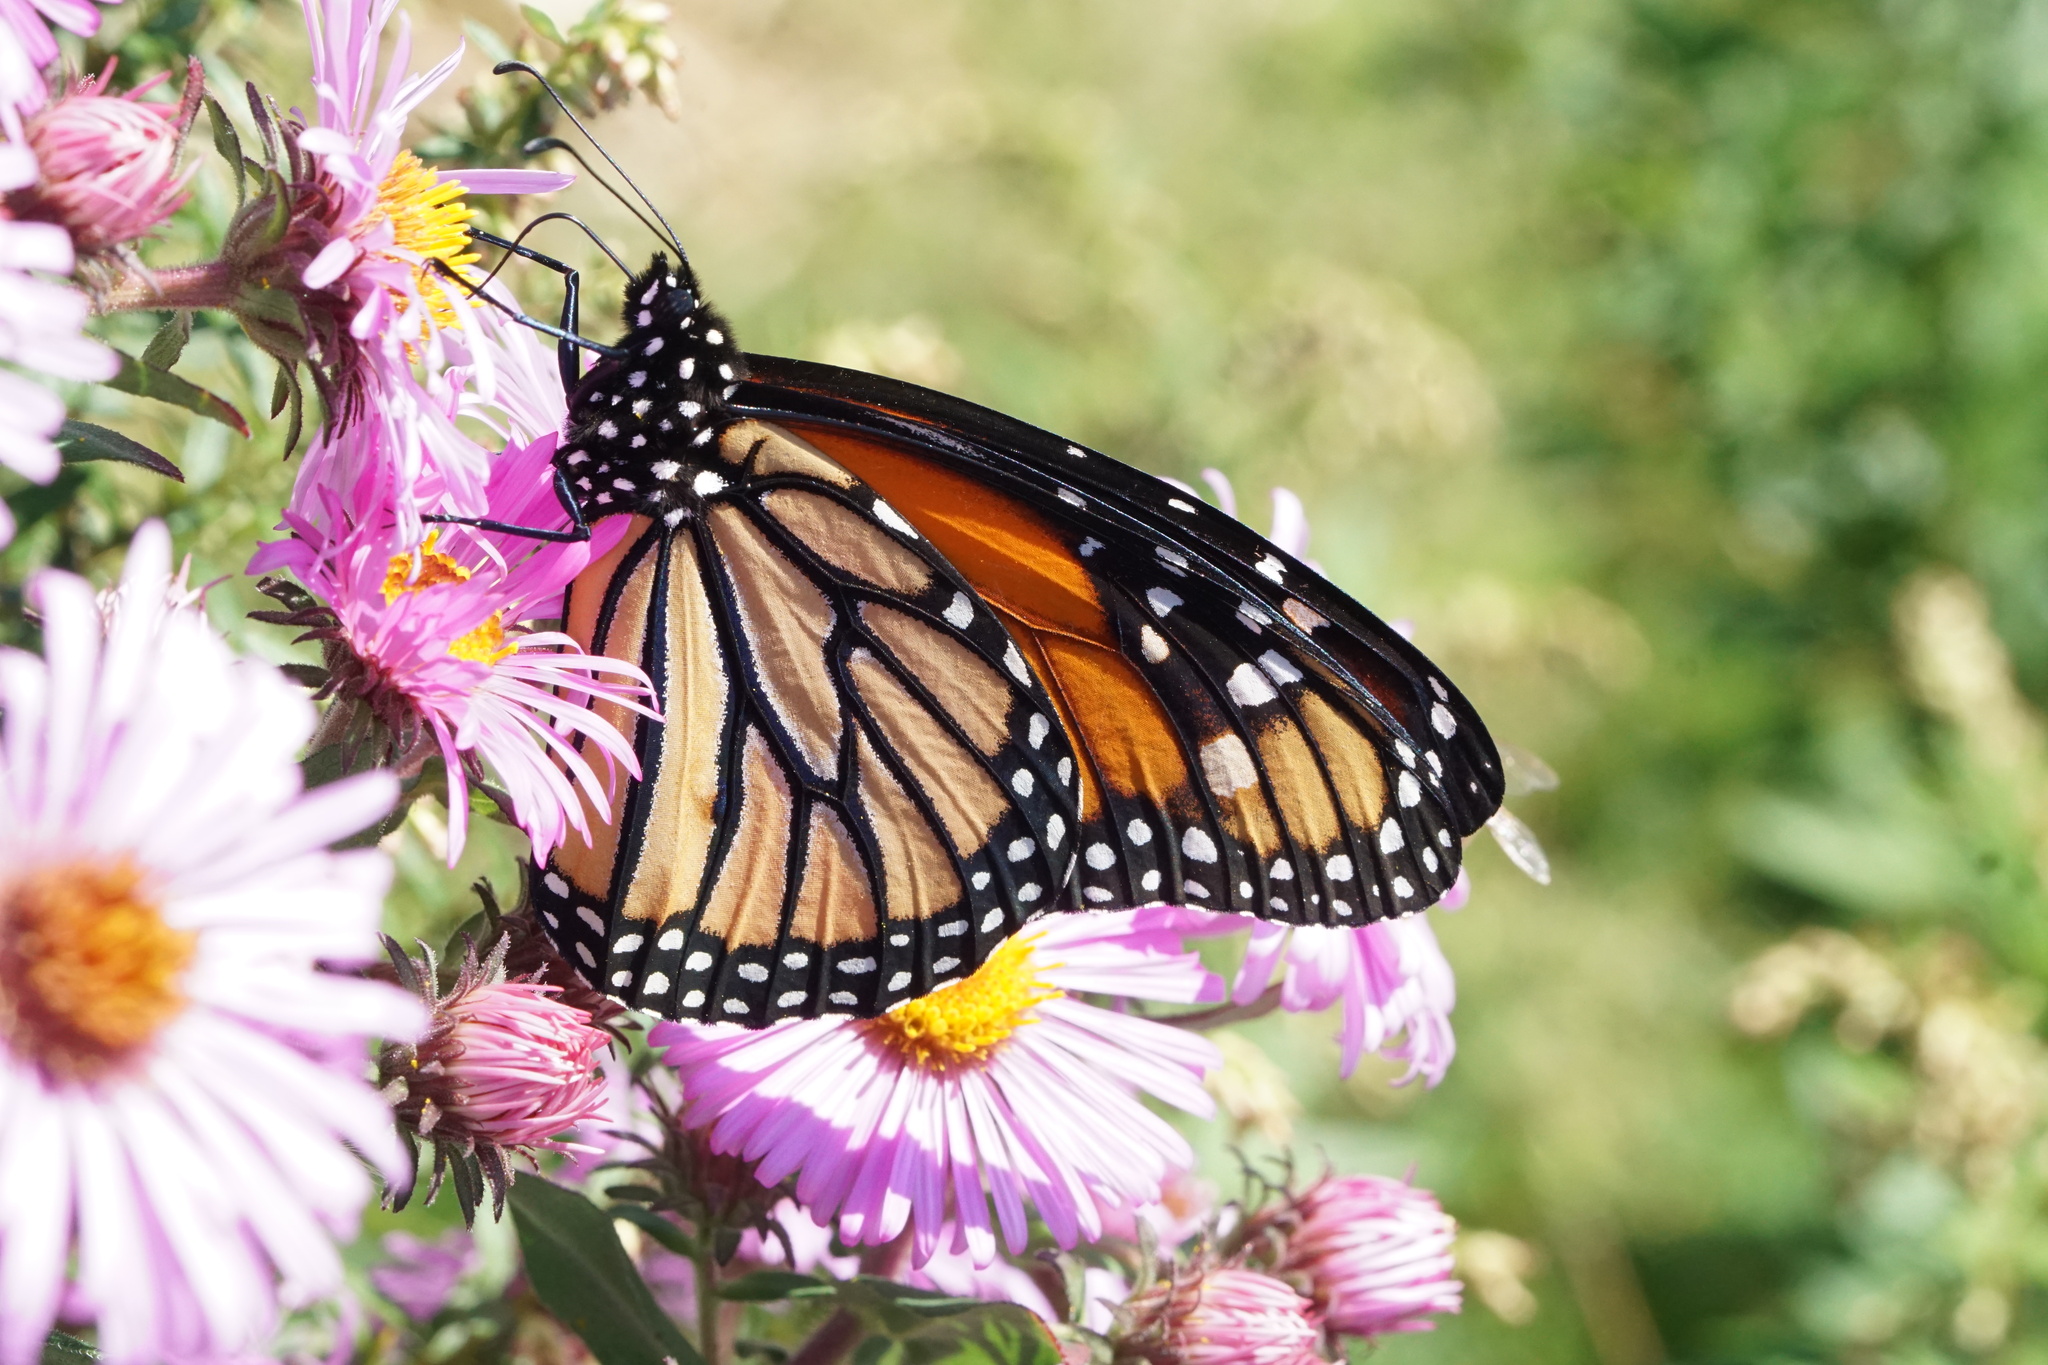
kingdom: Animalia
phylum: Arthropoda
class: Insecta
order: Lepidoptera
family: Nymphalidae
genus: Danaus
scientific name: Danaus plexippus
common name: Monarch
